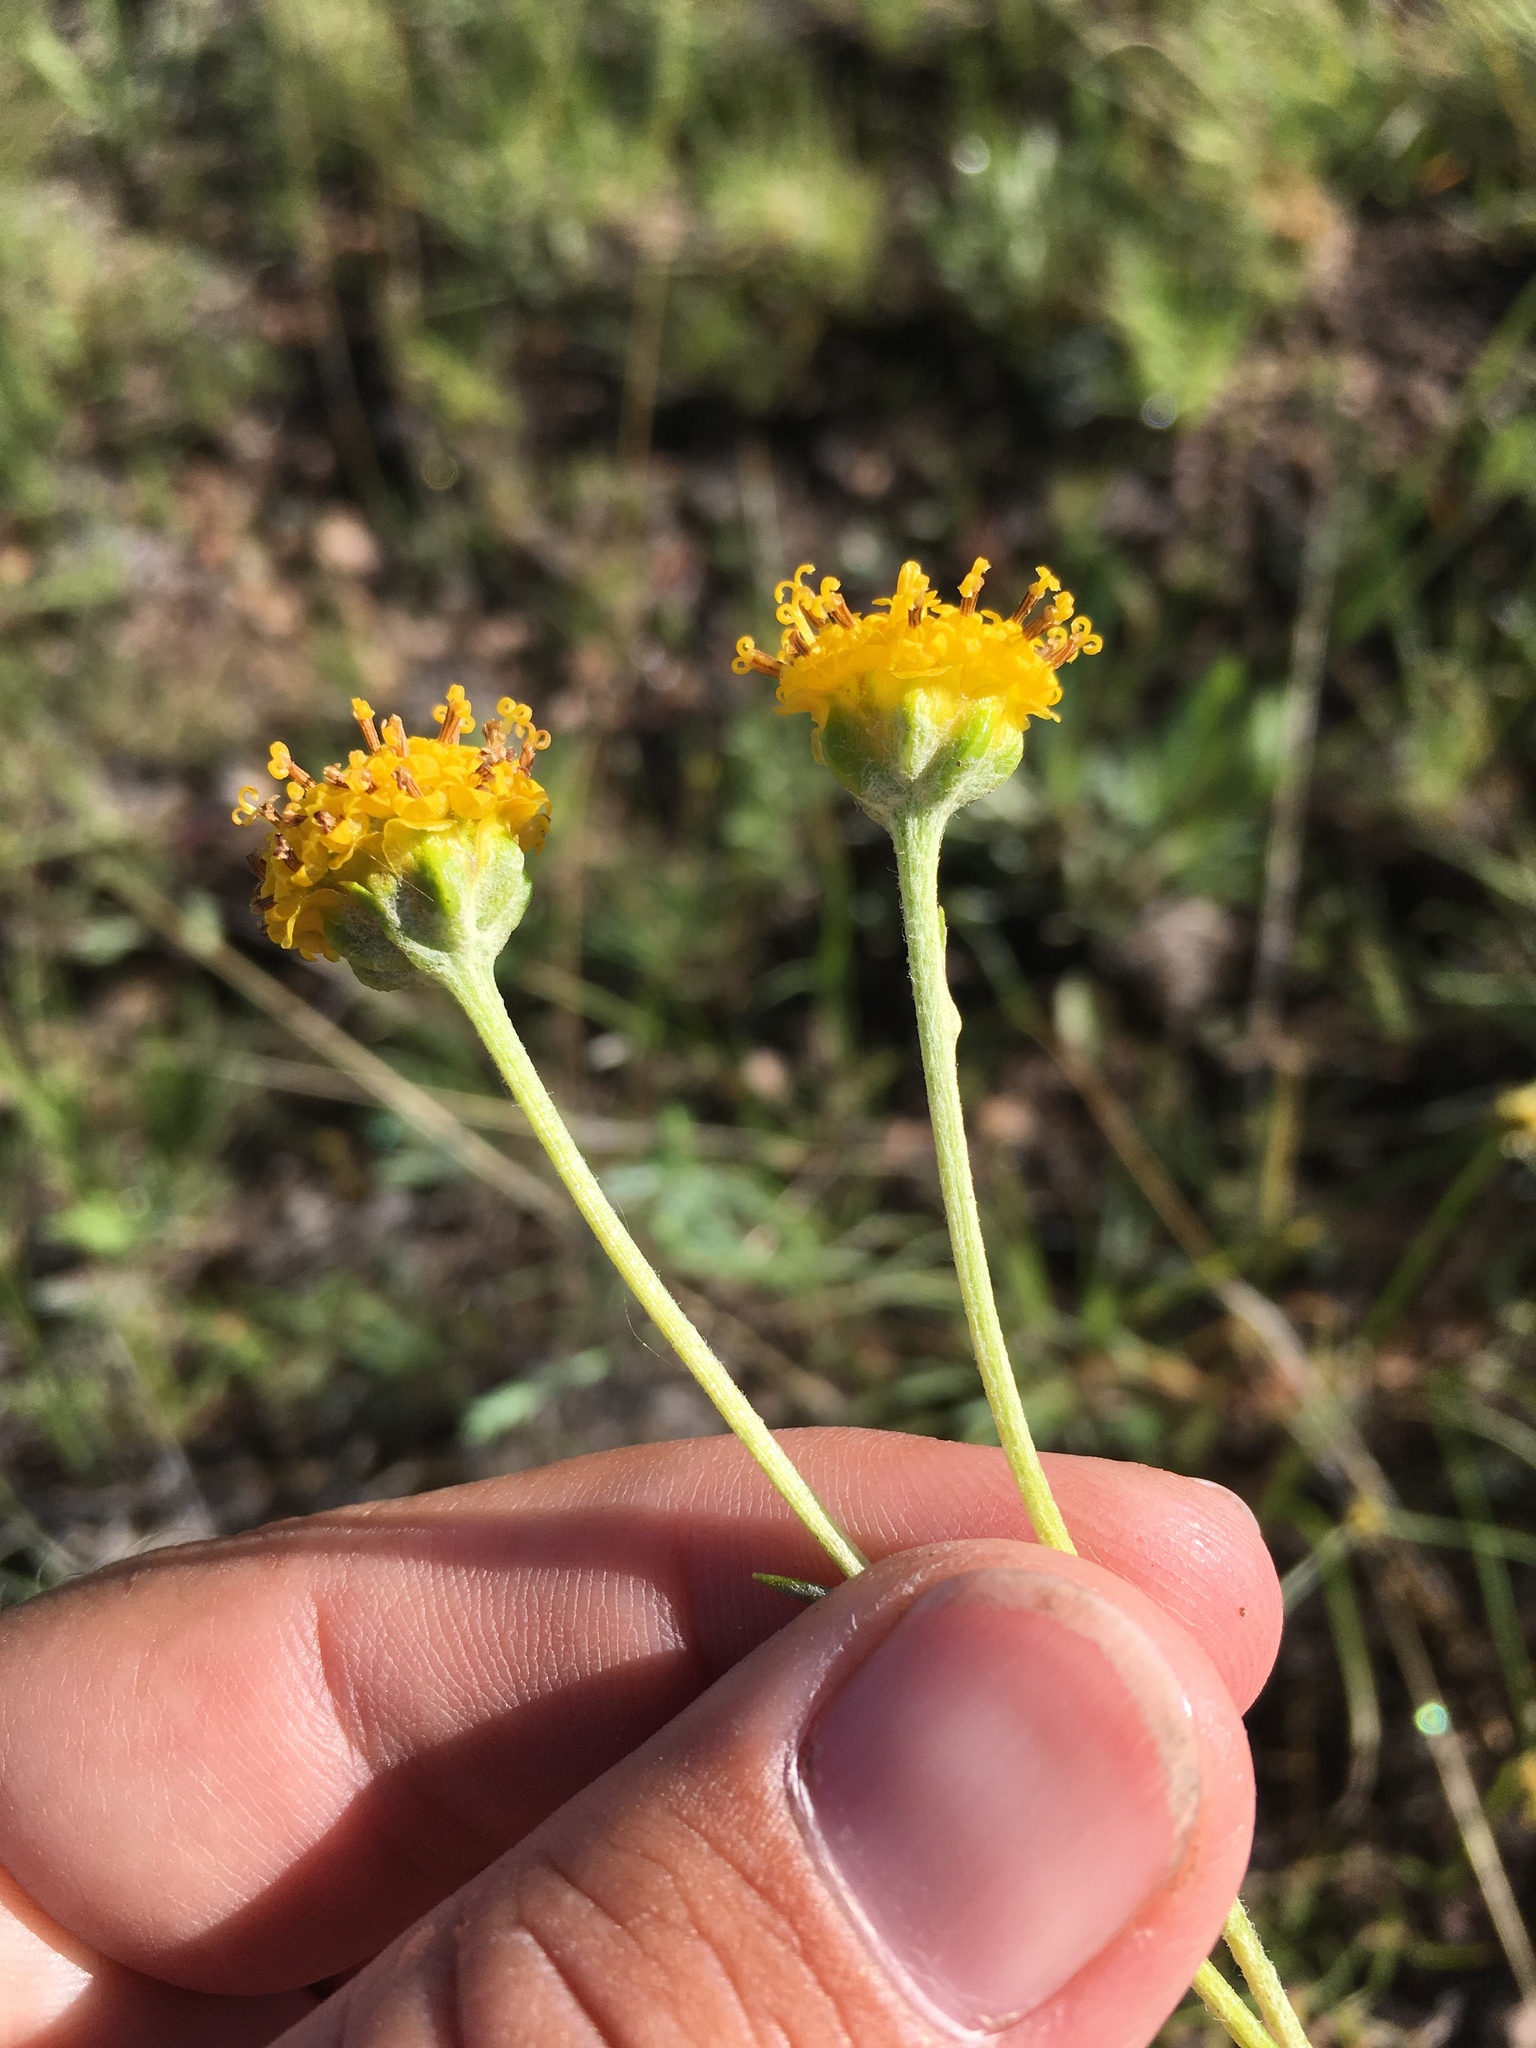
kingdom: Plantae
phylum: Tracheophyta
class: Magnoliopsida
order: Asterales
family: Asteraceae
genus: Hymenopappus
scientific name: Hymenopappus mexicanus
